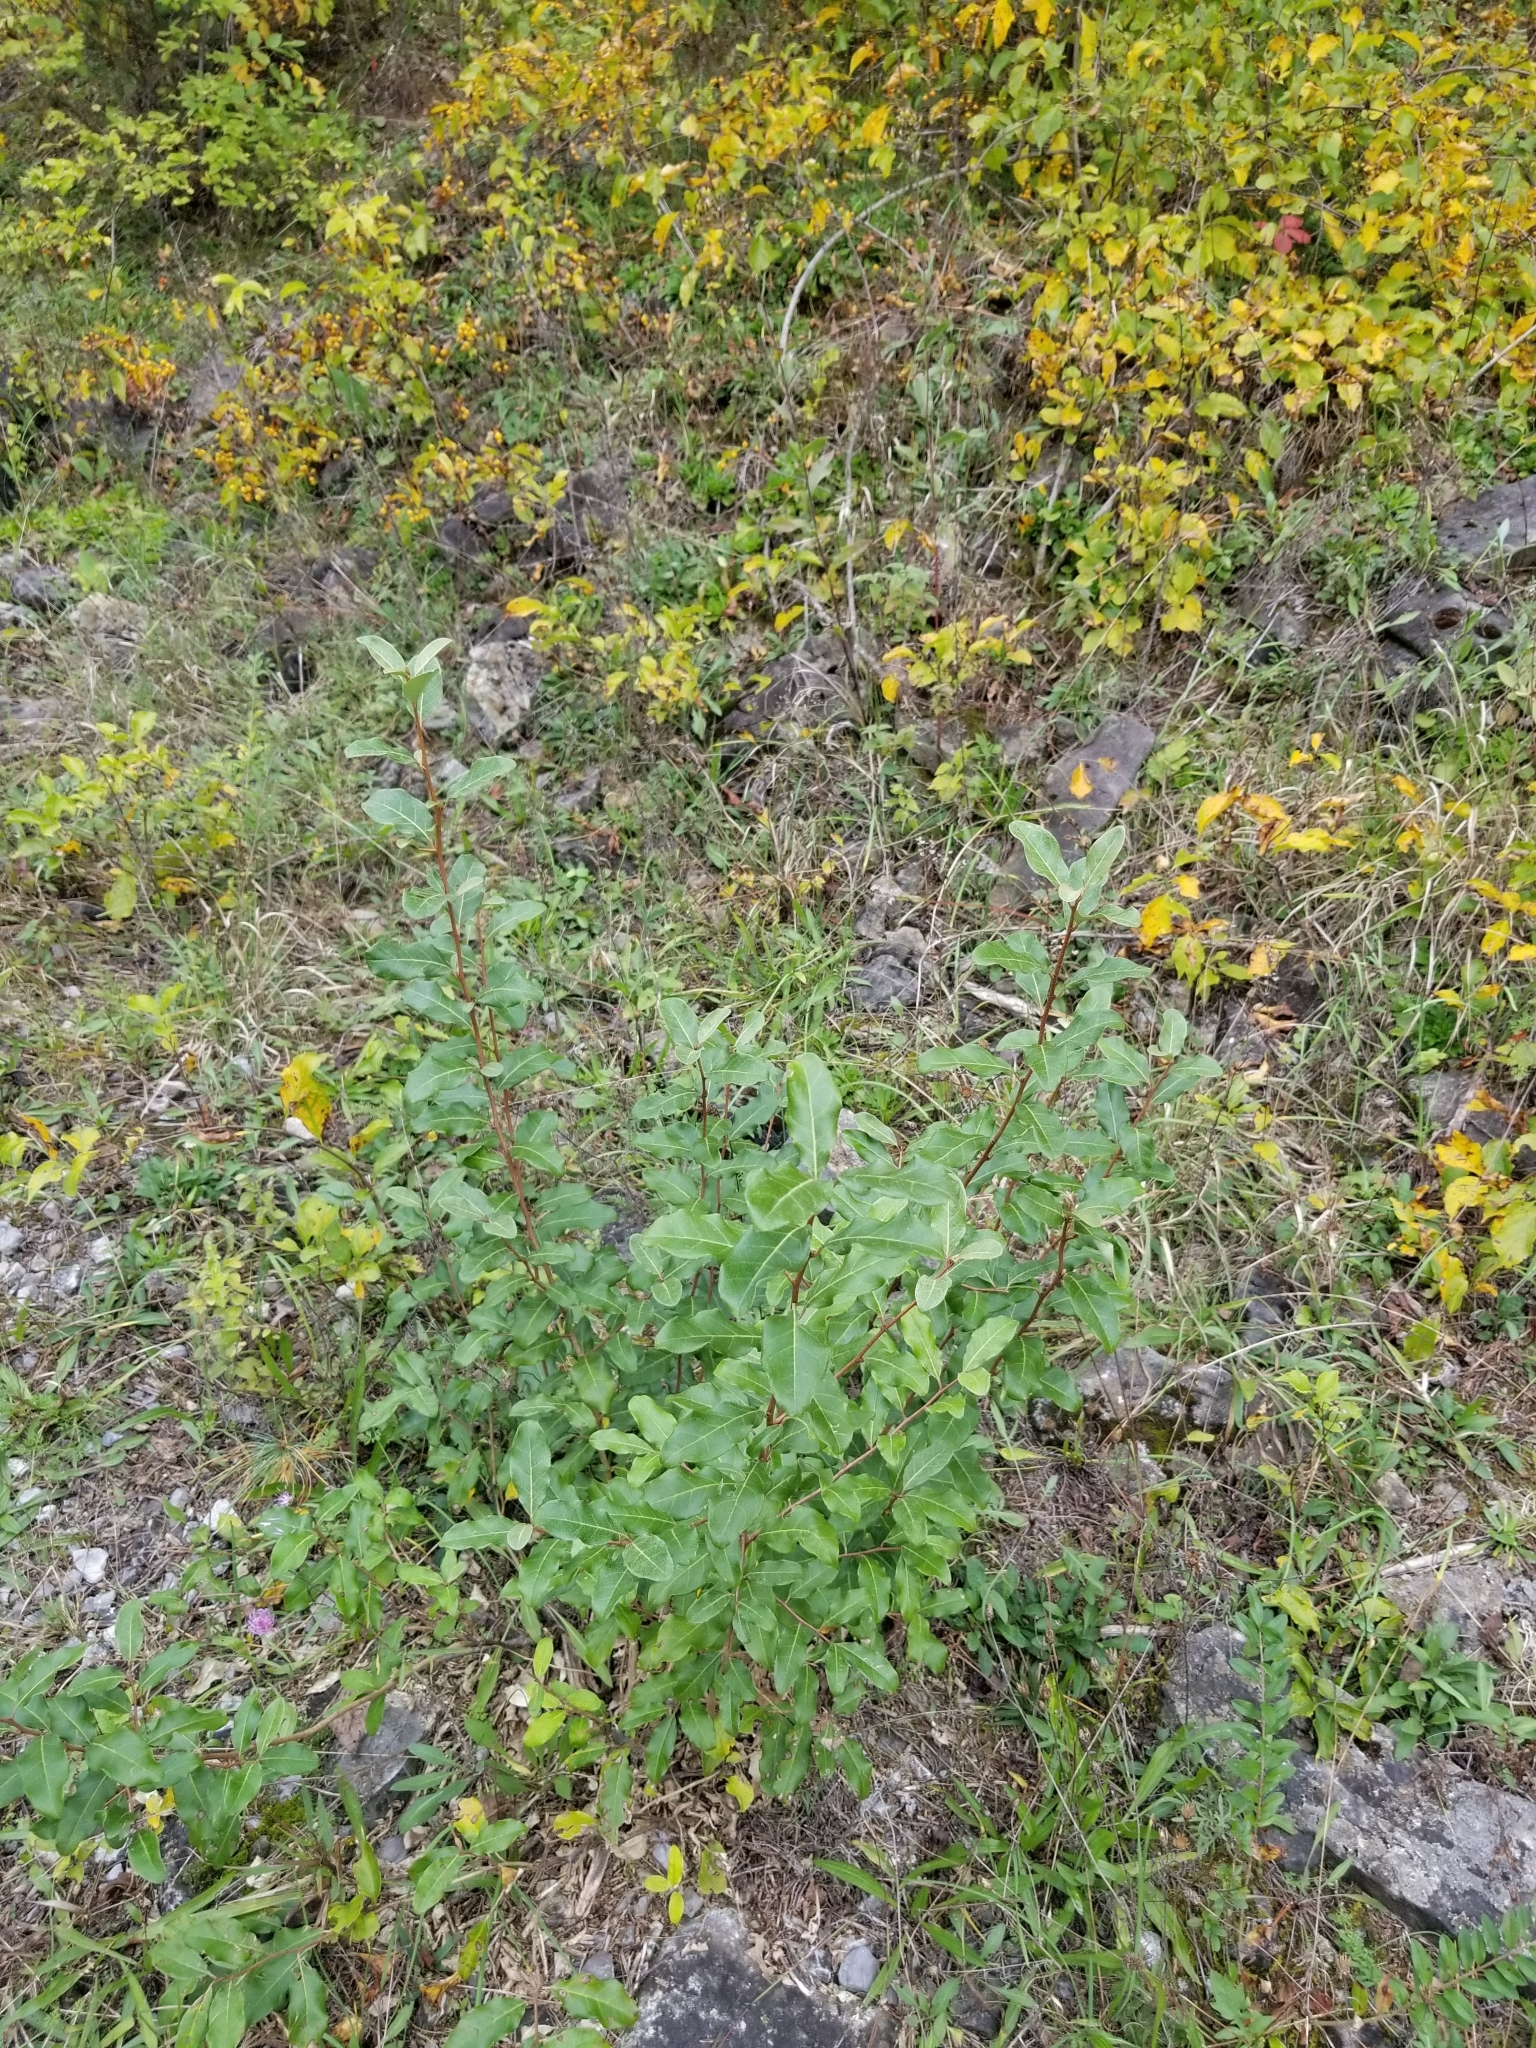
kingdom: Plantae
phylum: Tracheophyta
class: Magnoliopsida
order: Rosales
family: Elaeagnaceae
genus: Elaeagnus
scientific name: Elaeagnus umbellata
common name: Autumn olive
